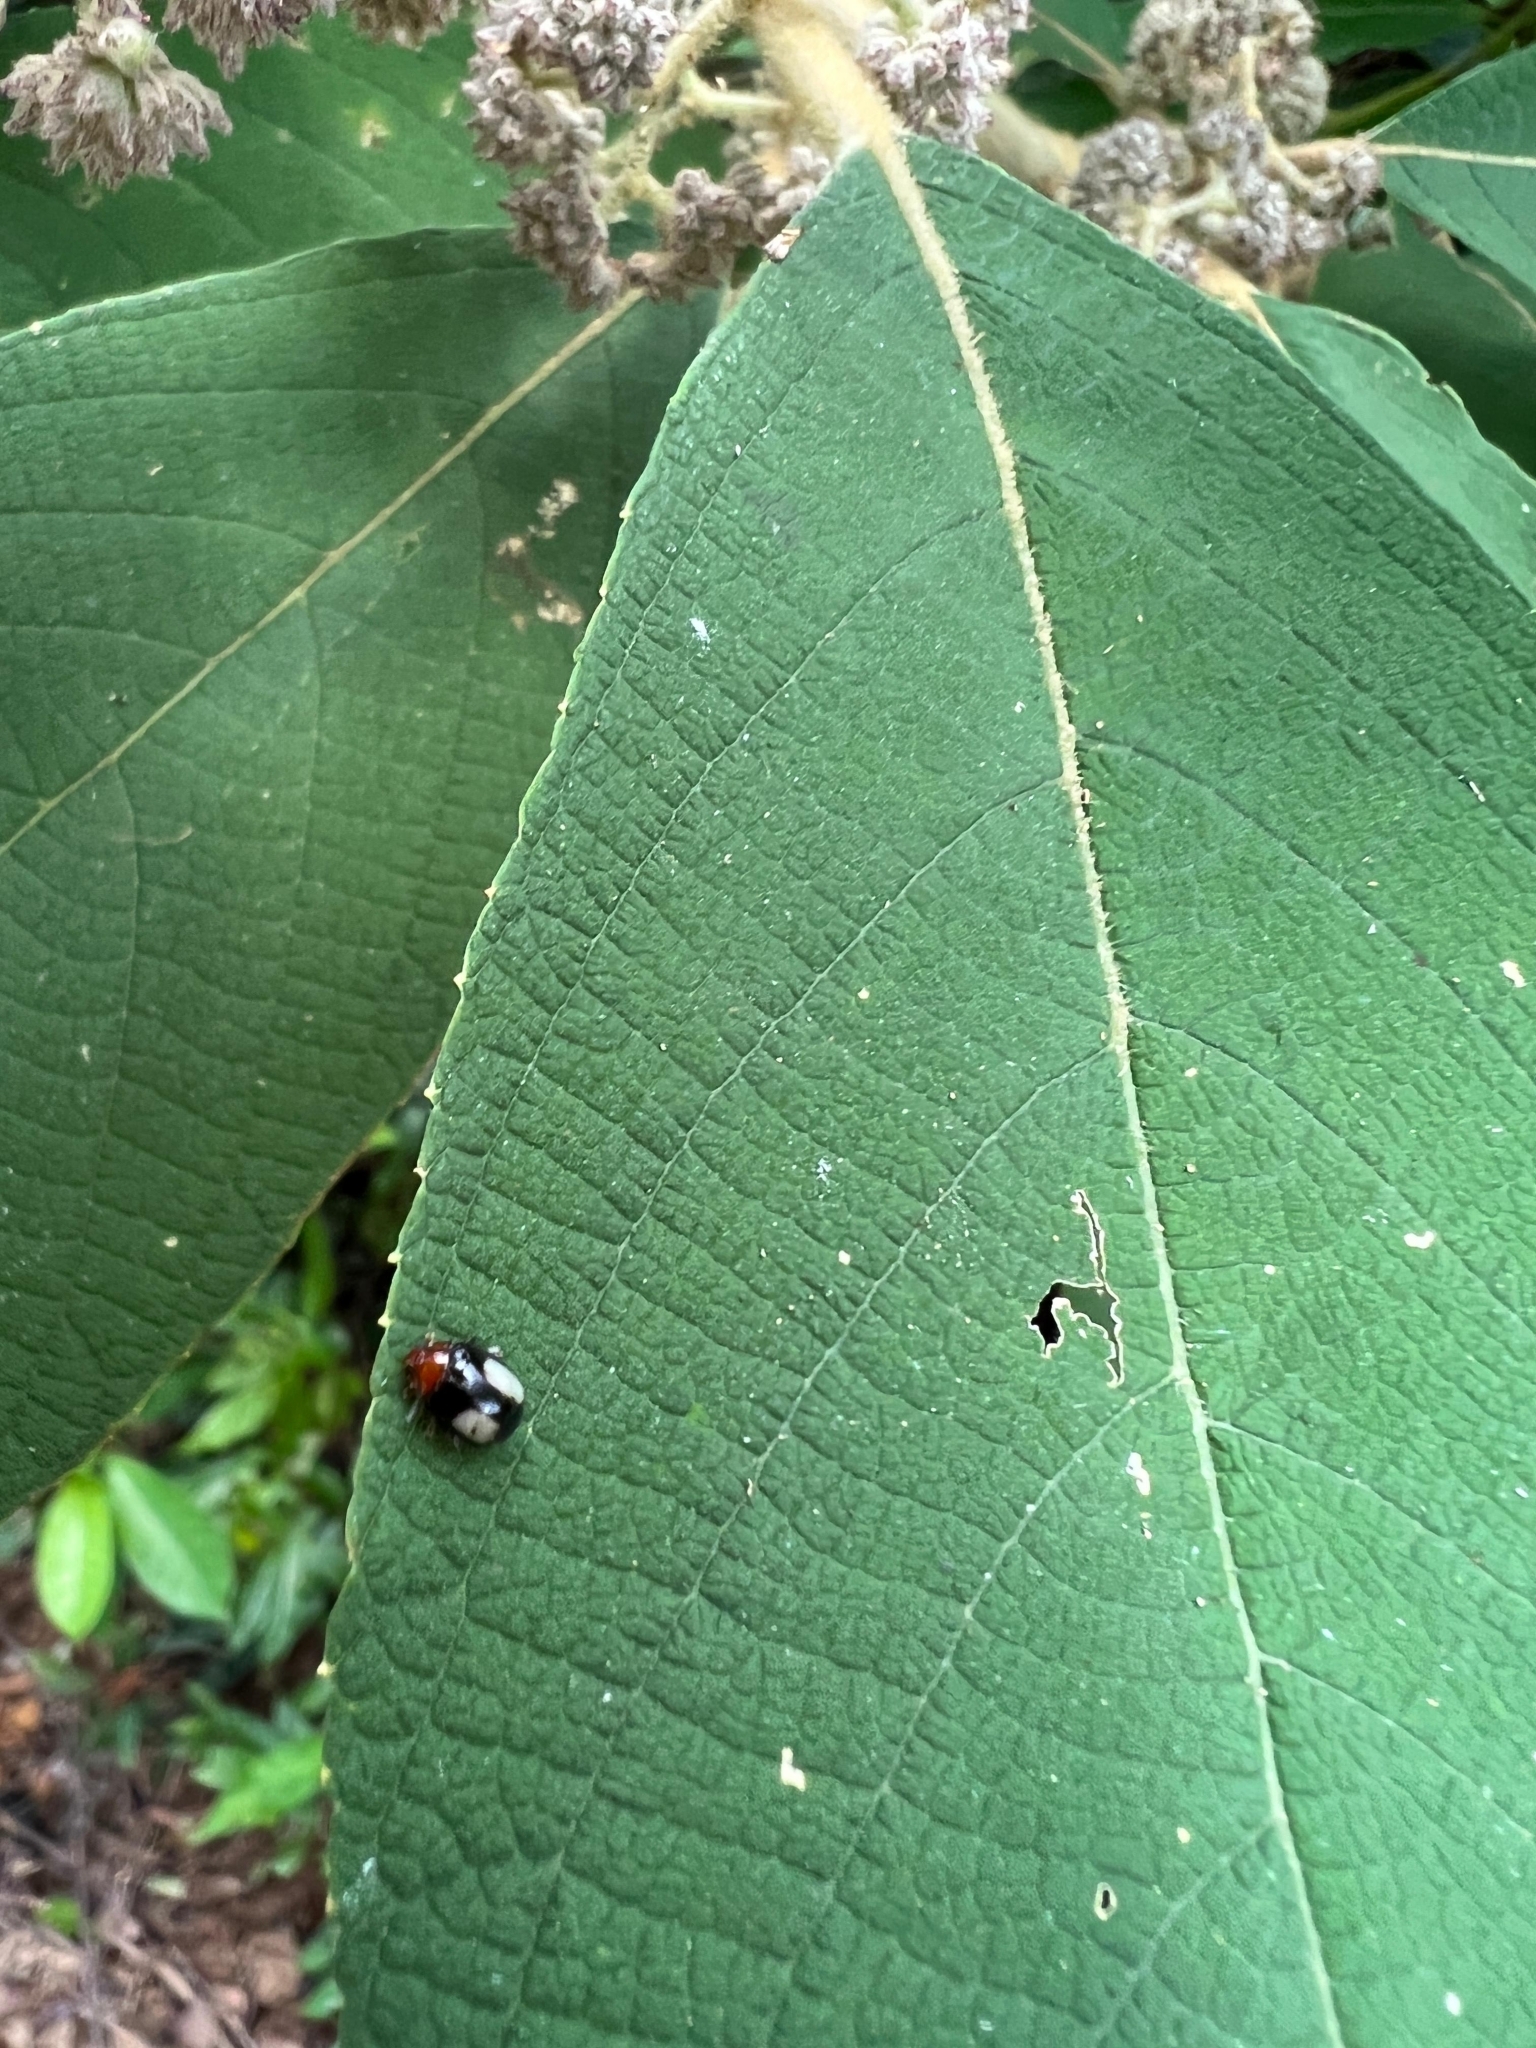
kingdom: Animalia
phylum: Arthropoda
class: Insecta
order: Coleoptera
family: Chrysomelidae
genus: Phygasia
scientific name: Phygasia ornata
